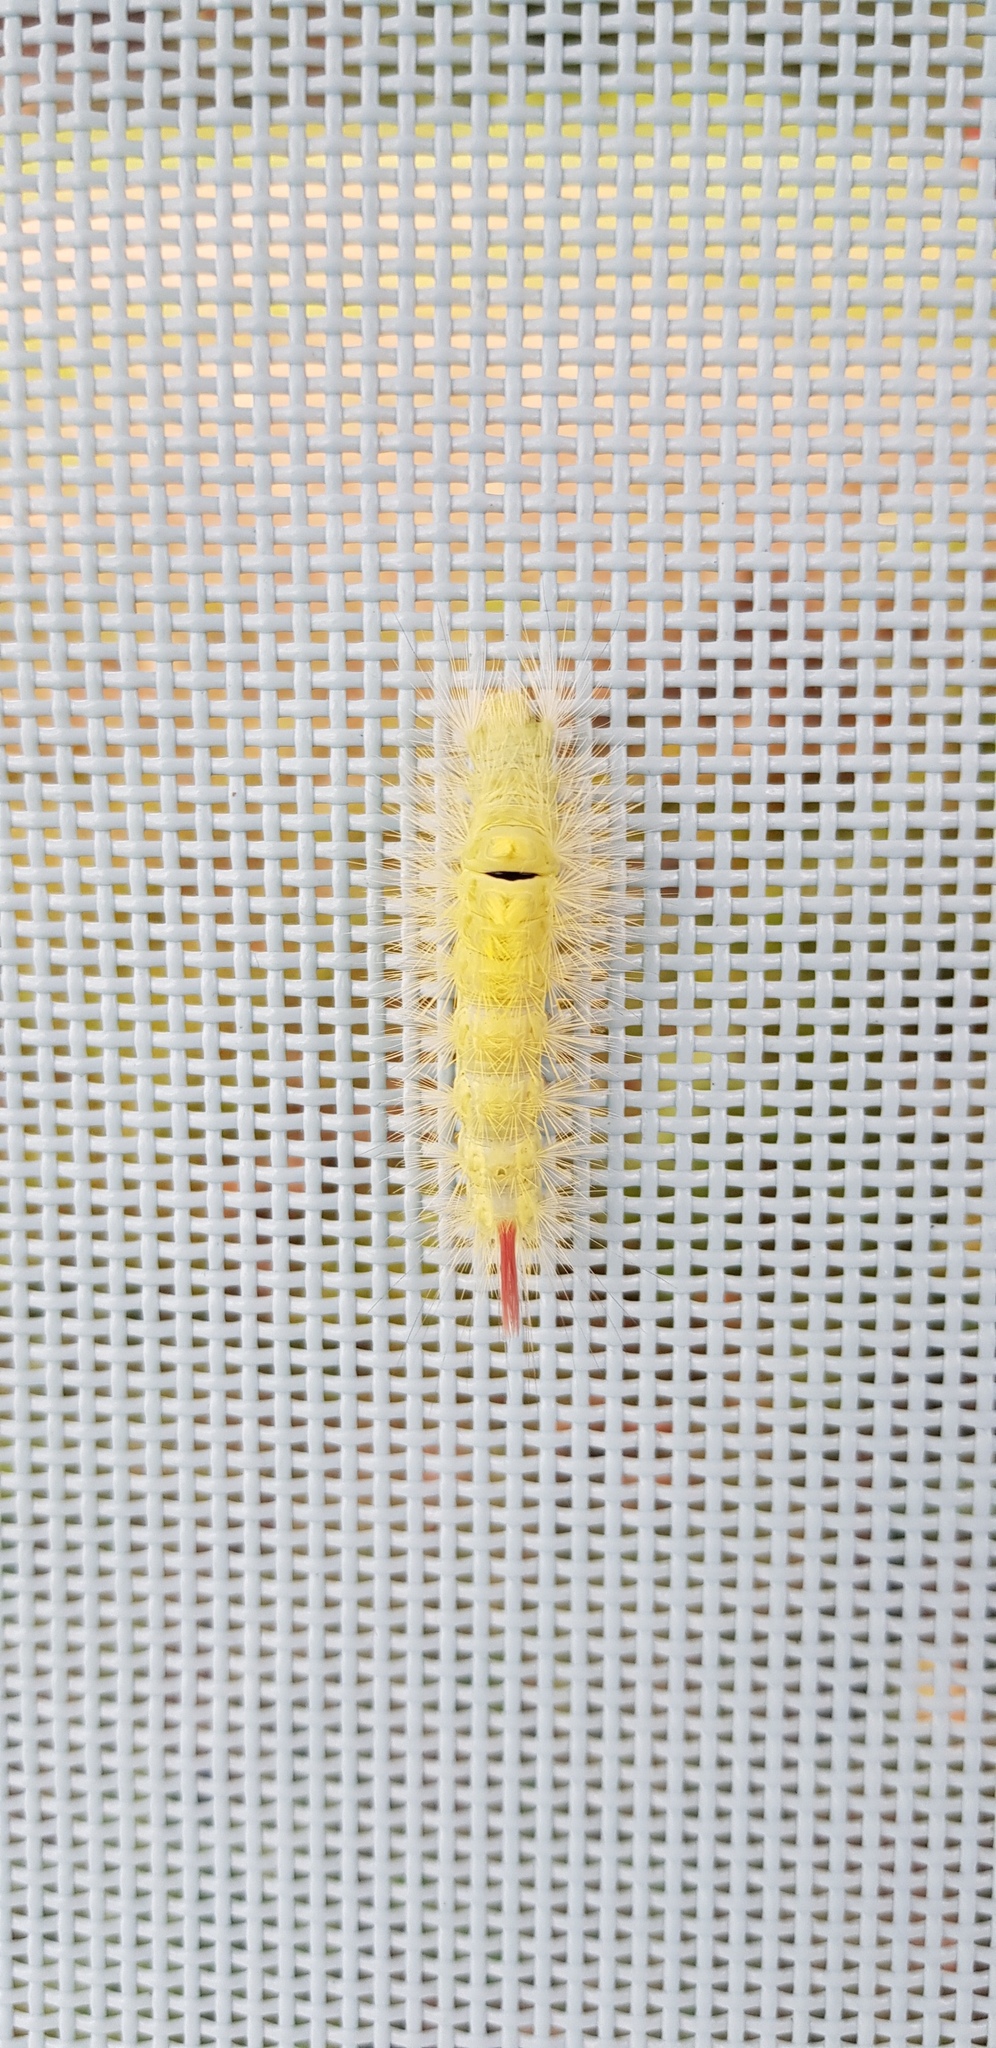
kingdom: Animalia
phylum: Arthropoda
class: Insecta
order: Lepidoptera
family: Erebidae
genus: Calliteara
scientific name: Calliteara pudibunda
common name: Pale tussock
